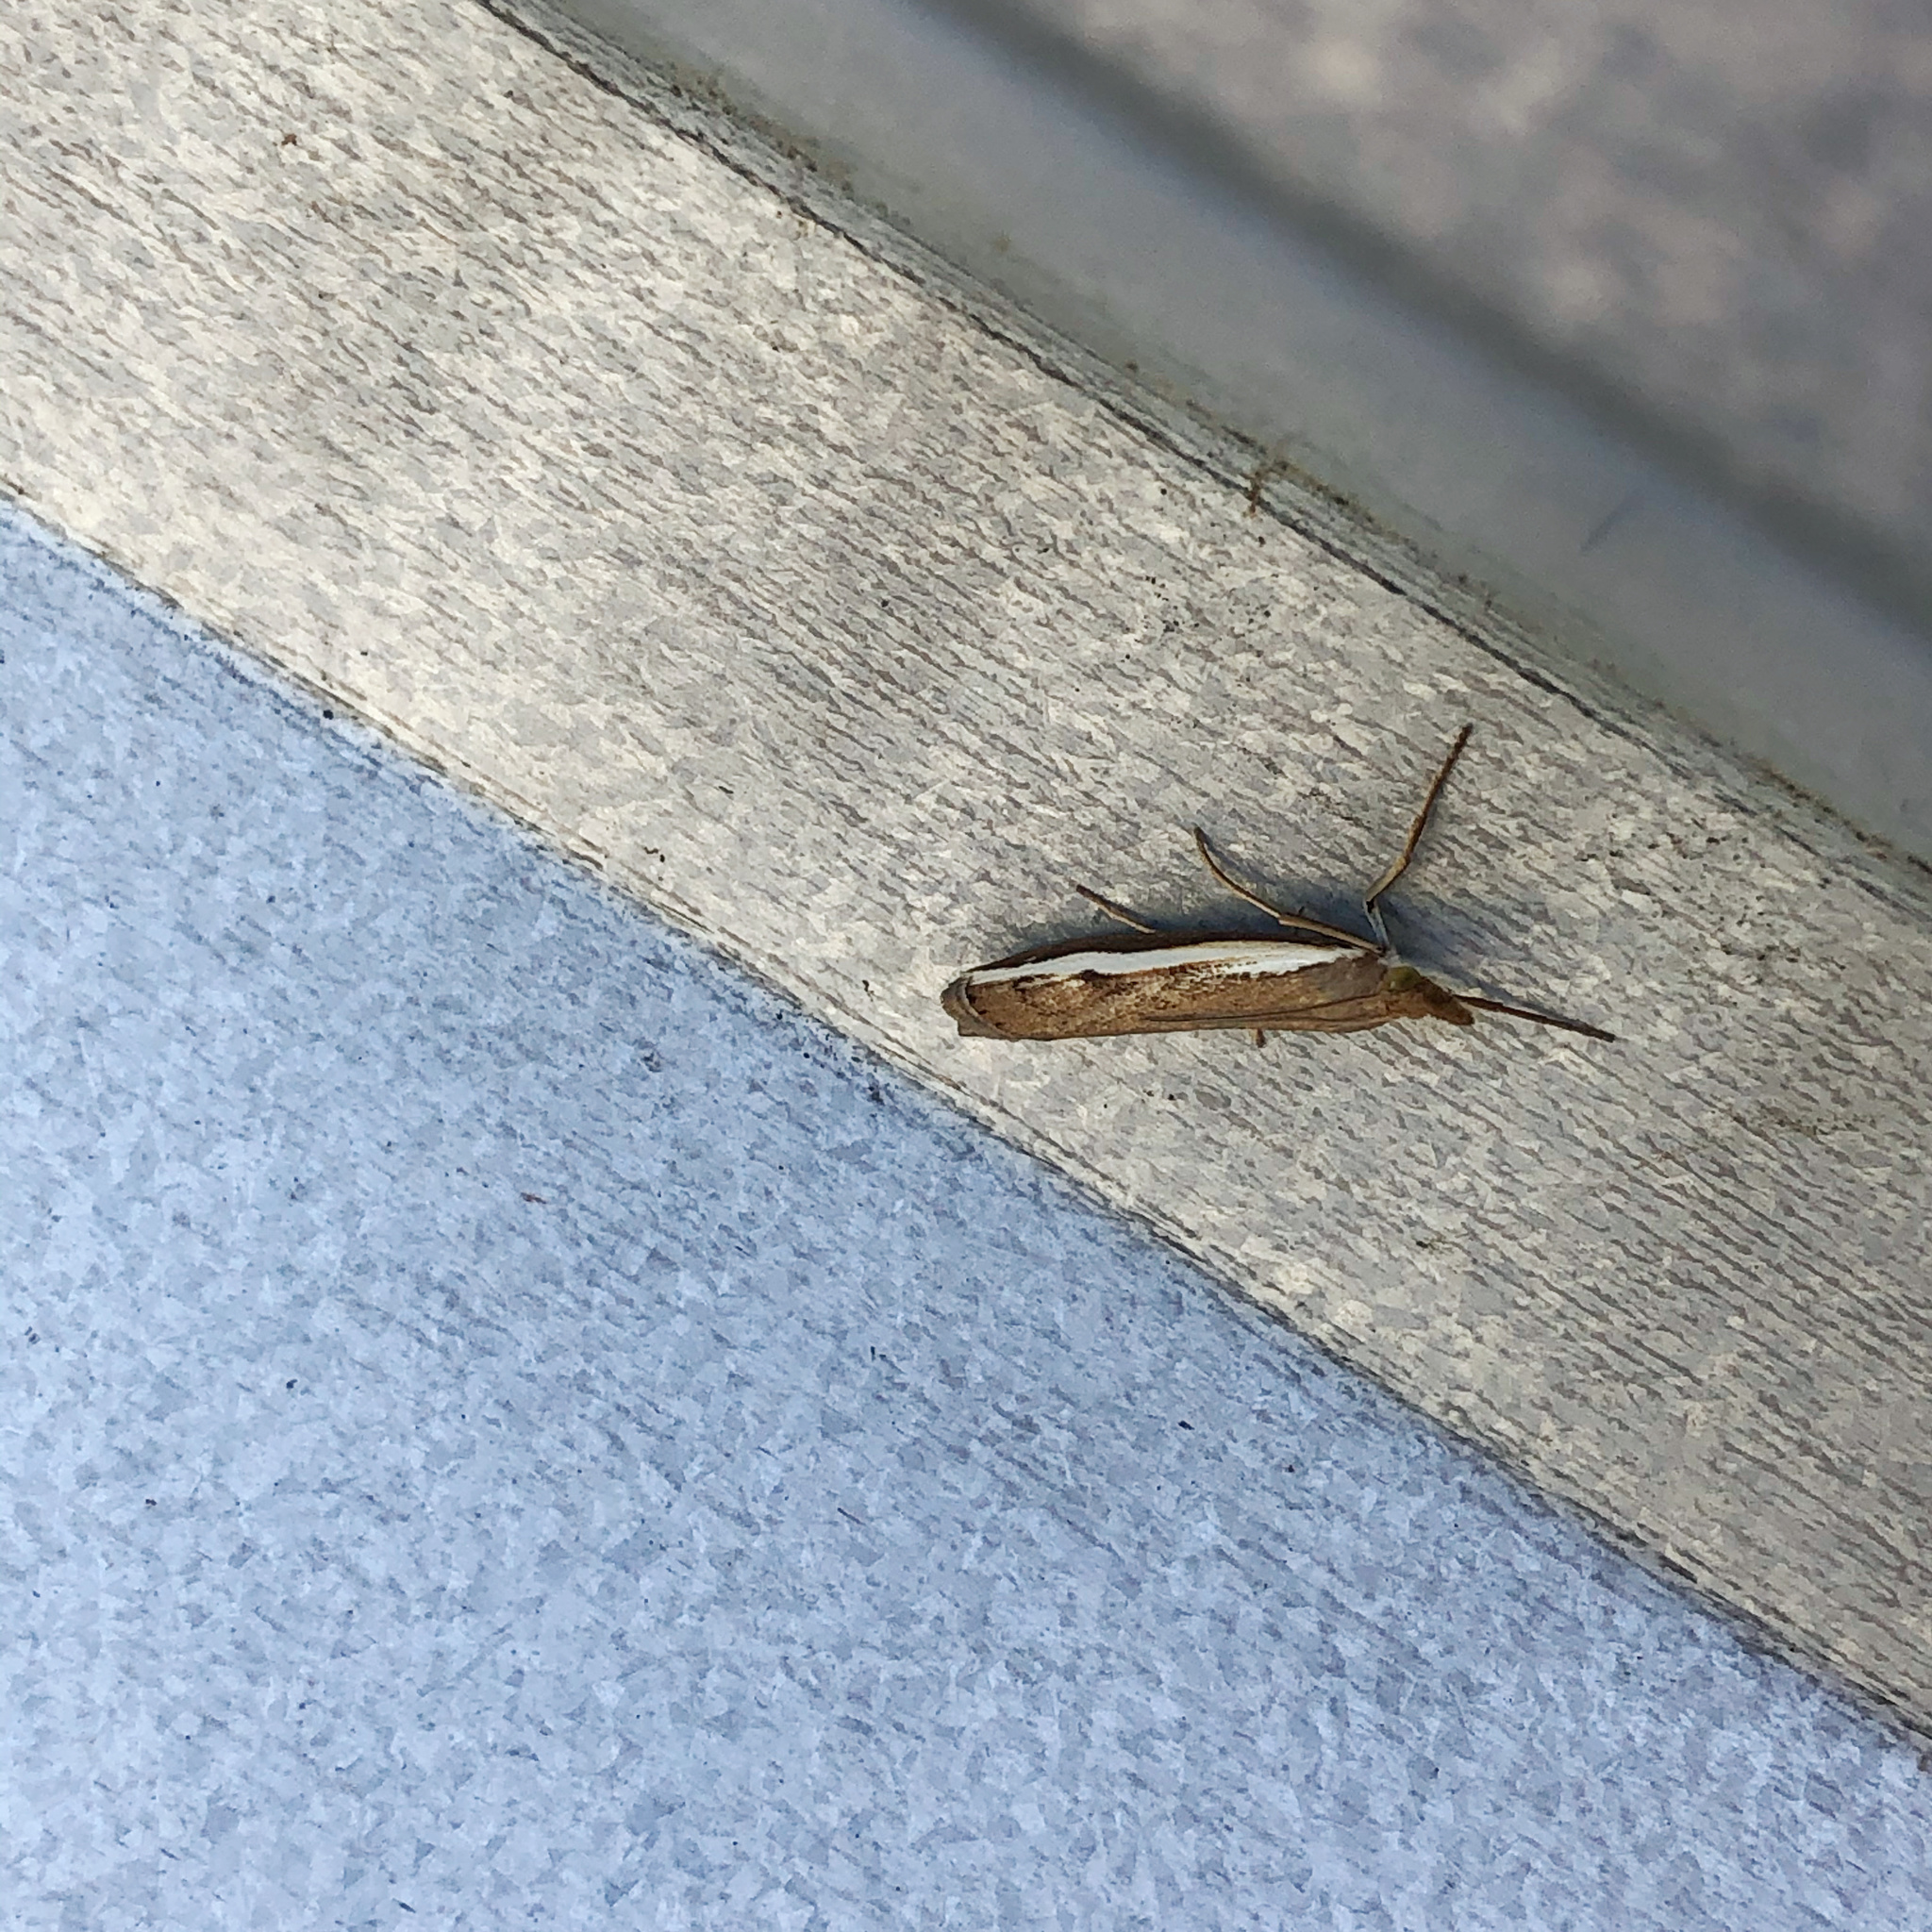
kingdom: Animalia
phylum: Arthropoda
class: Insecta
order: Lepidoptera
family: Crambidae
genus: Orocrambus
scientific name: Orocrambus flexuosellus
